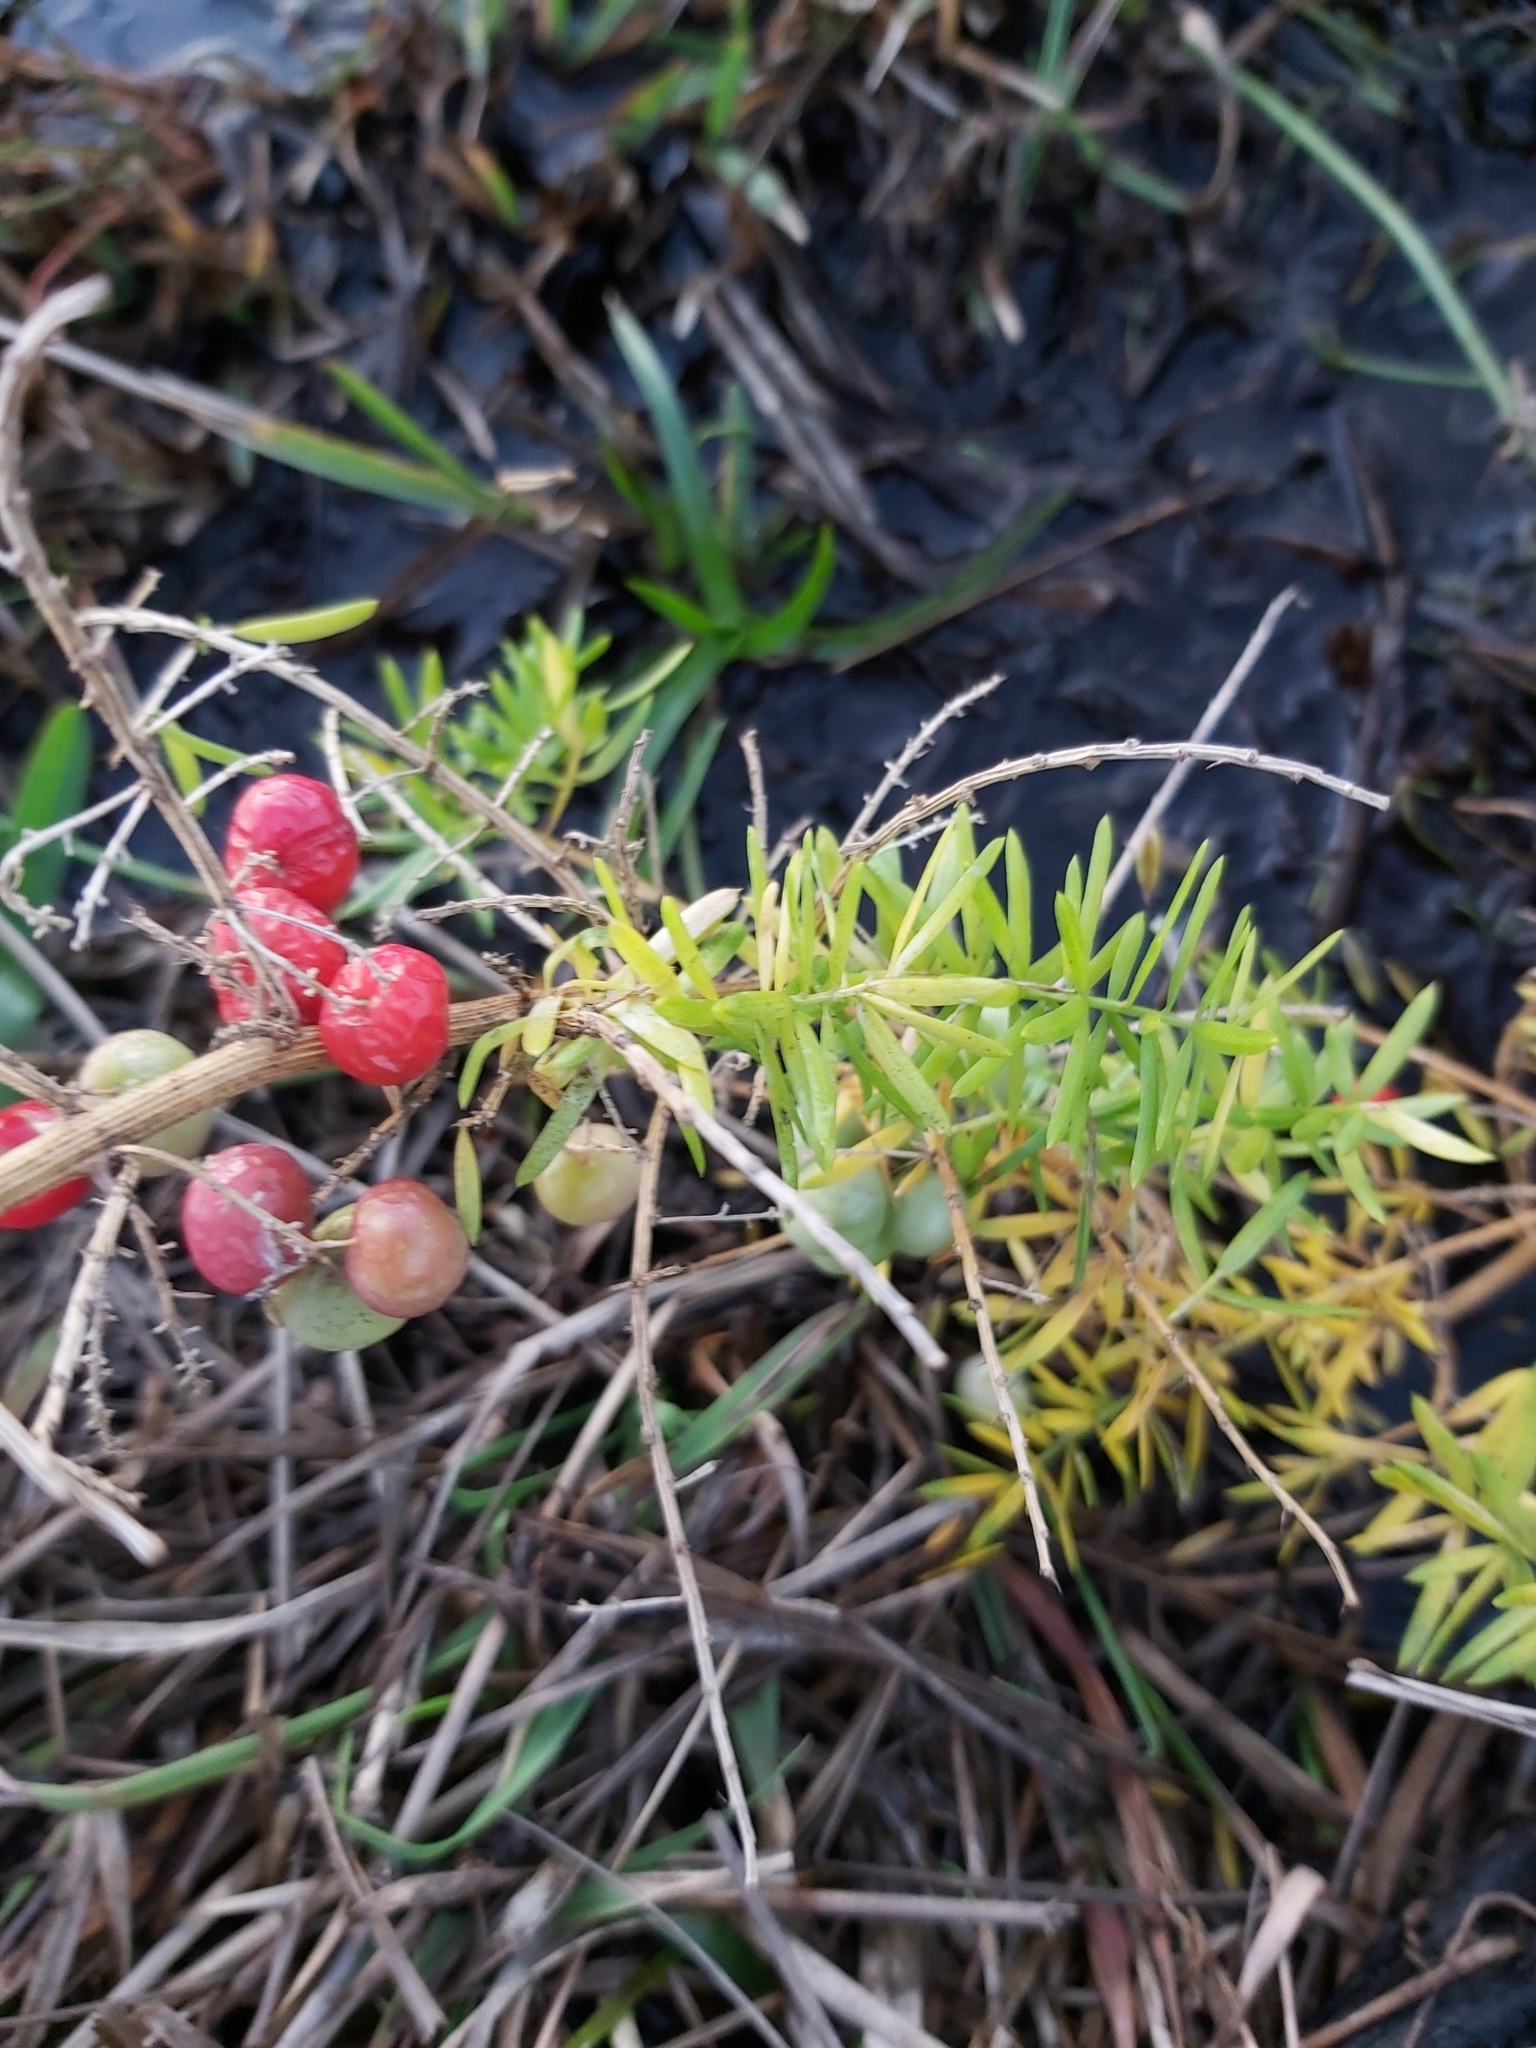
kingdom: Plantae
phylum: Tracheophyta
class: Liliopsida
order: Asparagales
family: Asparagaceae
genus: Asparagus
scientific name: Asparagus aethiopicus
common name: Sprenger's asparagus fern
